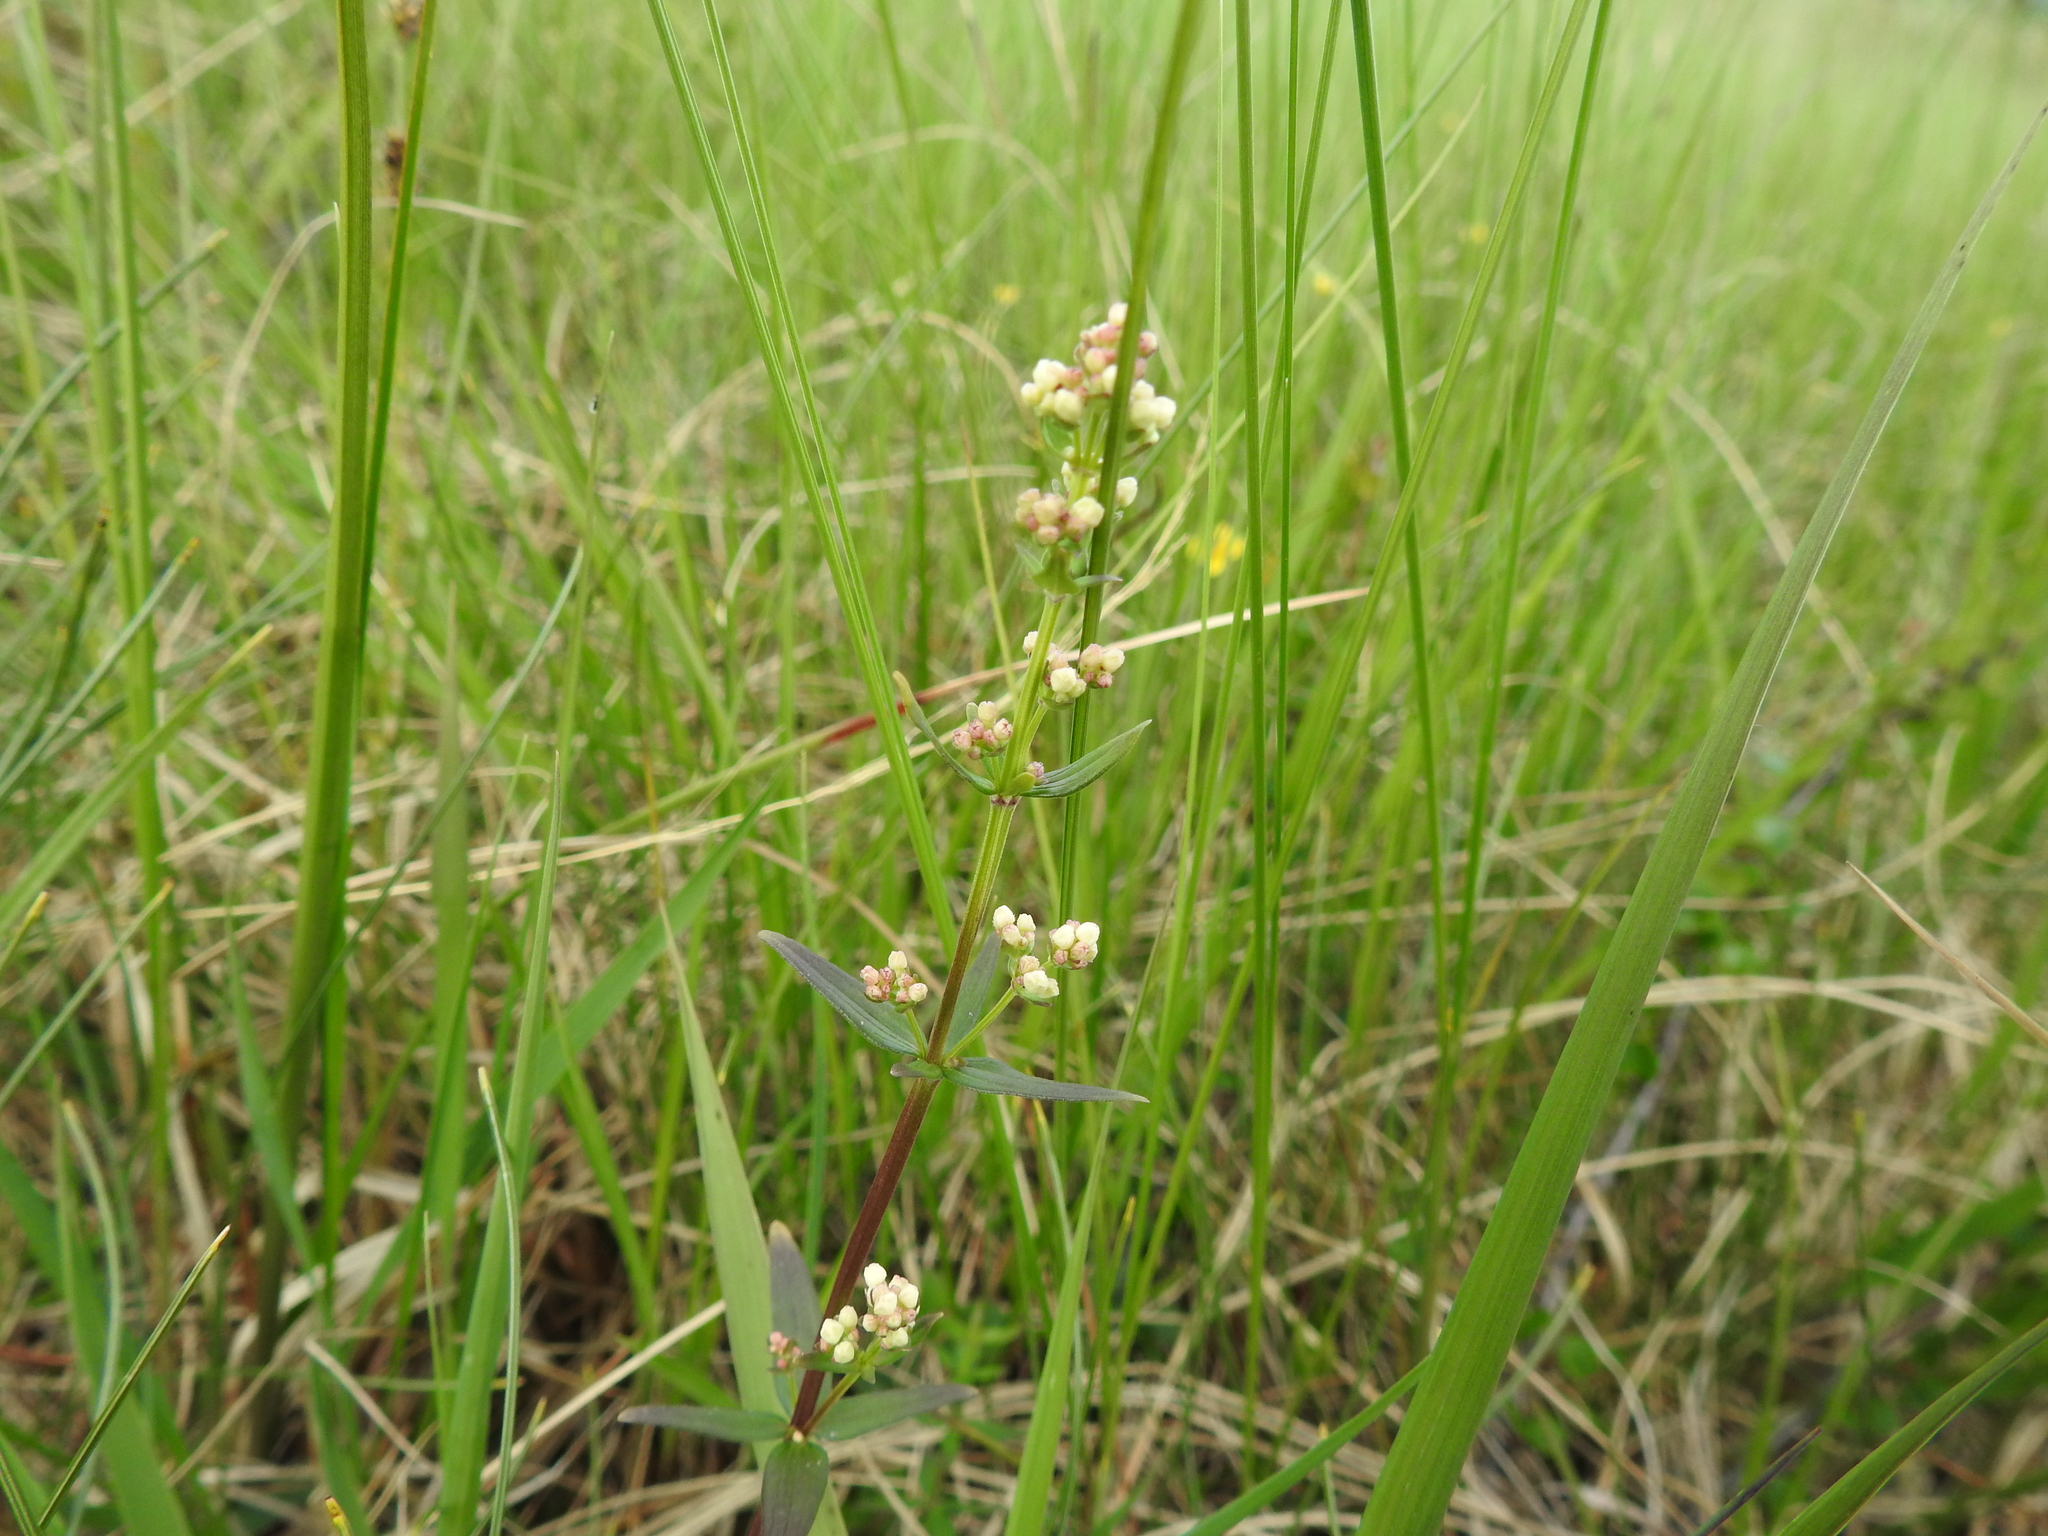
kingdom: Plantae
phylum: Tracheophyta
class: Magnoliopsida
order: Gentianales
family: Rubiaceae
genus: Galium
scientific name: Galium boreale
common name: Northern bedstraw
